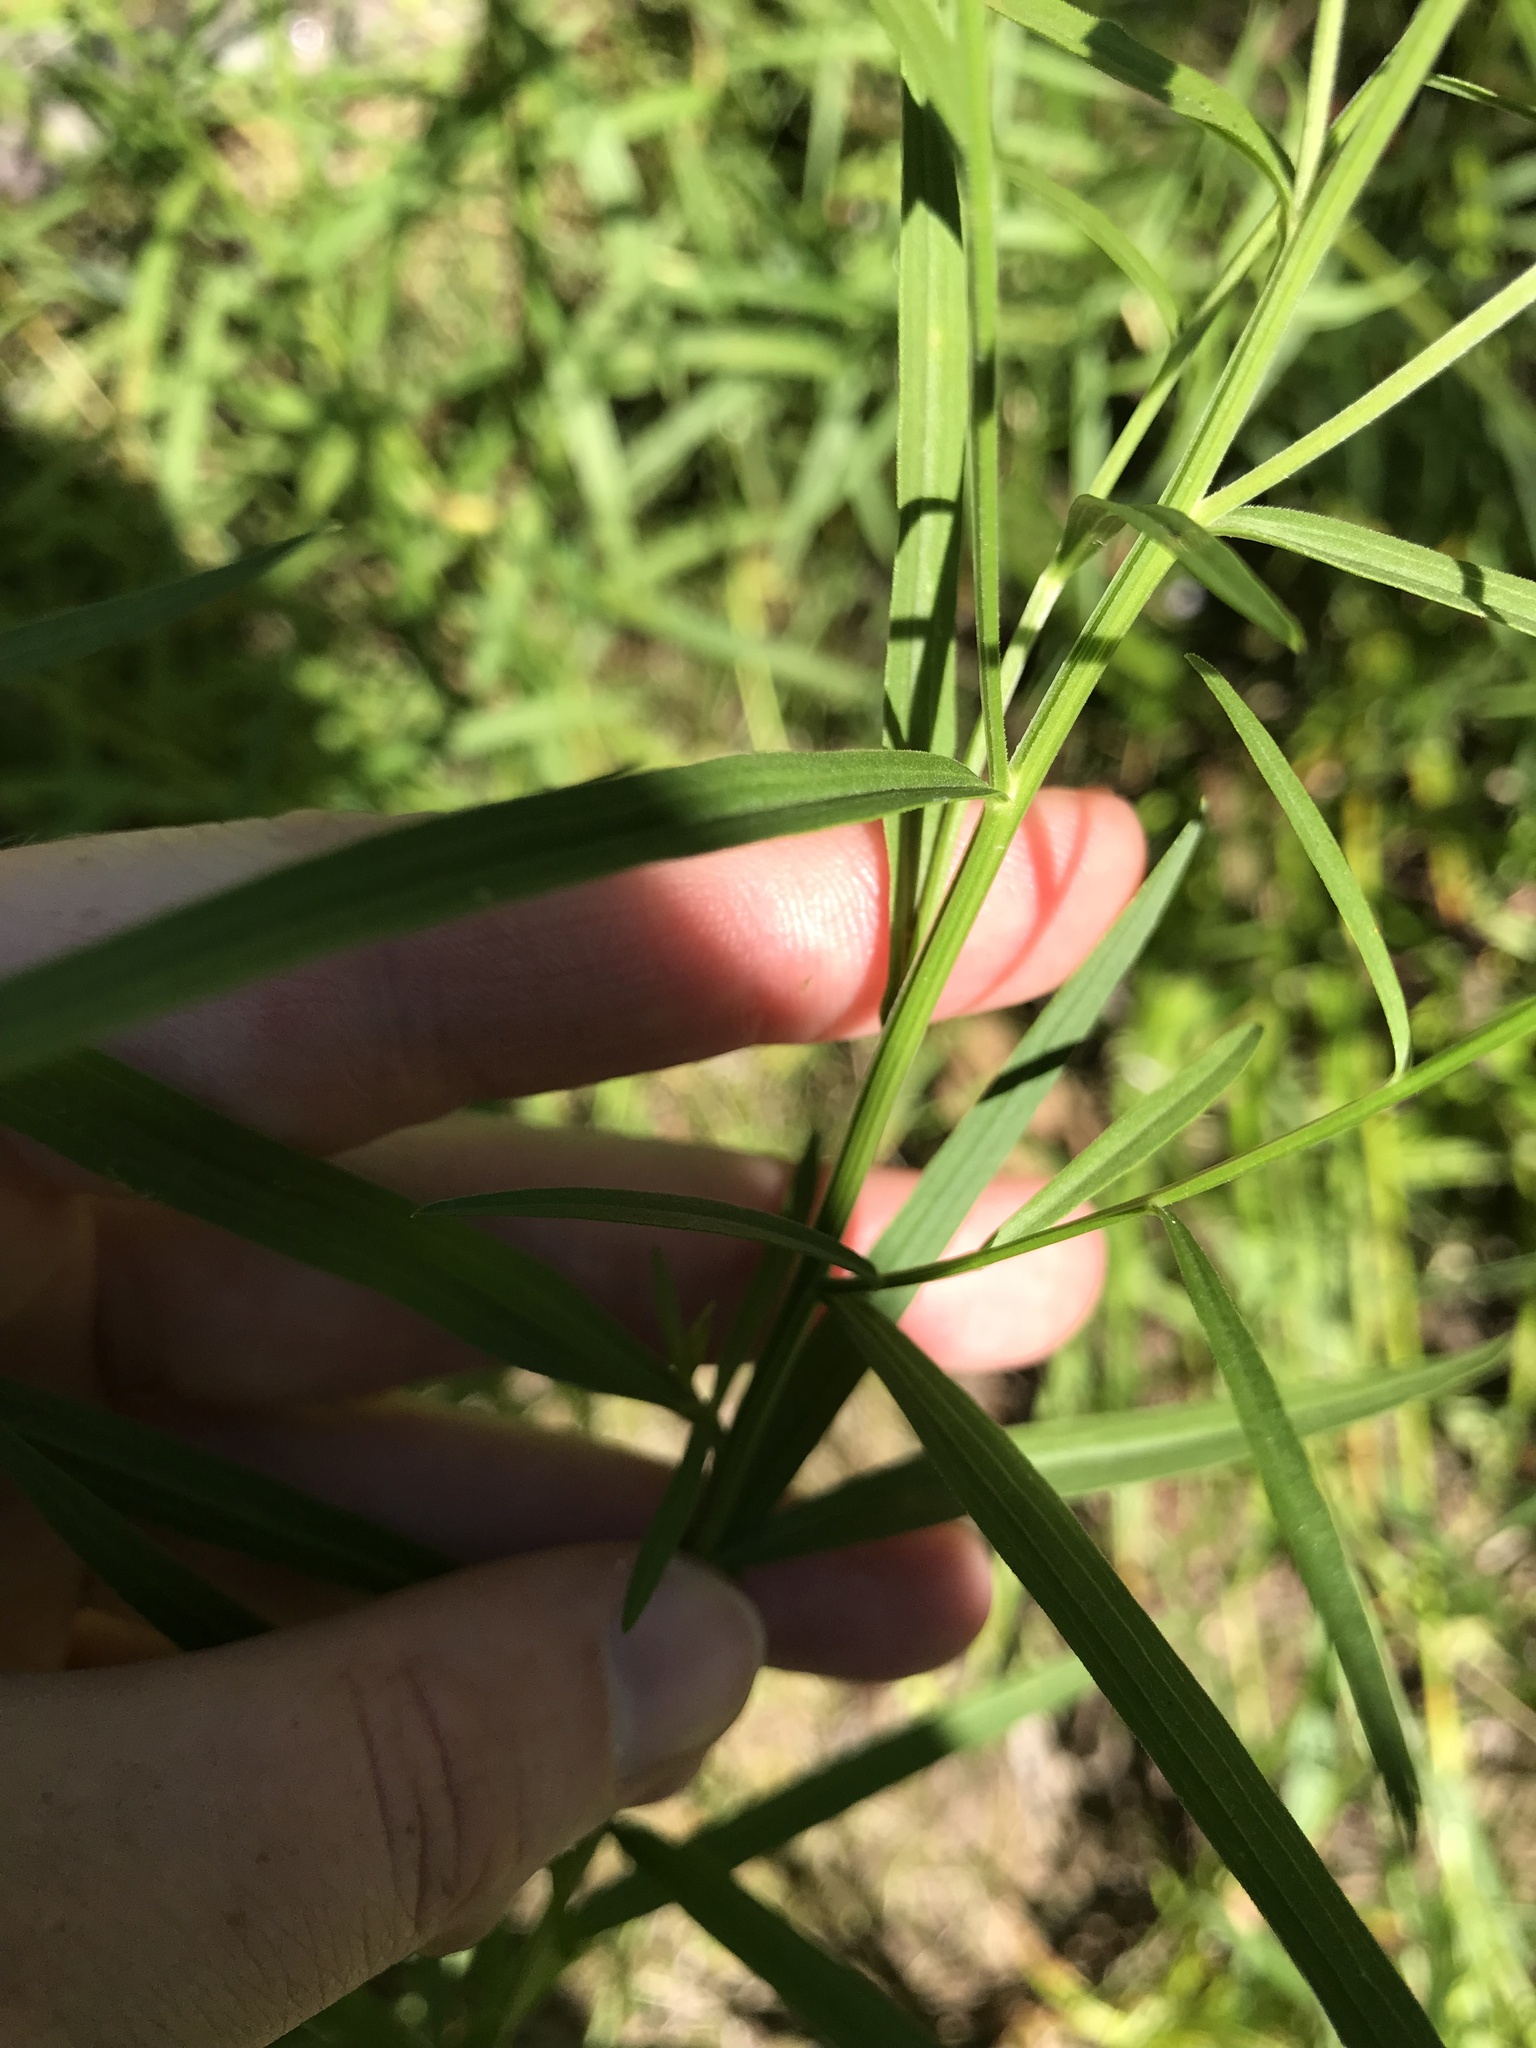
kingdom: Plantae
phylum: Tracheophyta
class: Magnoliopsida
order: Asterales
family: Asteraceae
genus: Euthamia
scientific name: Euthamia graminifolia
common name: Common goldentop
